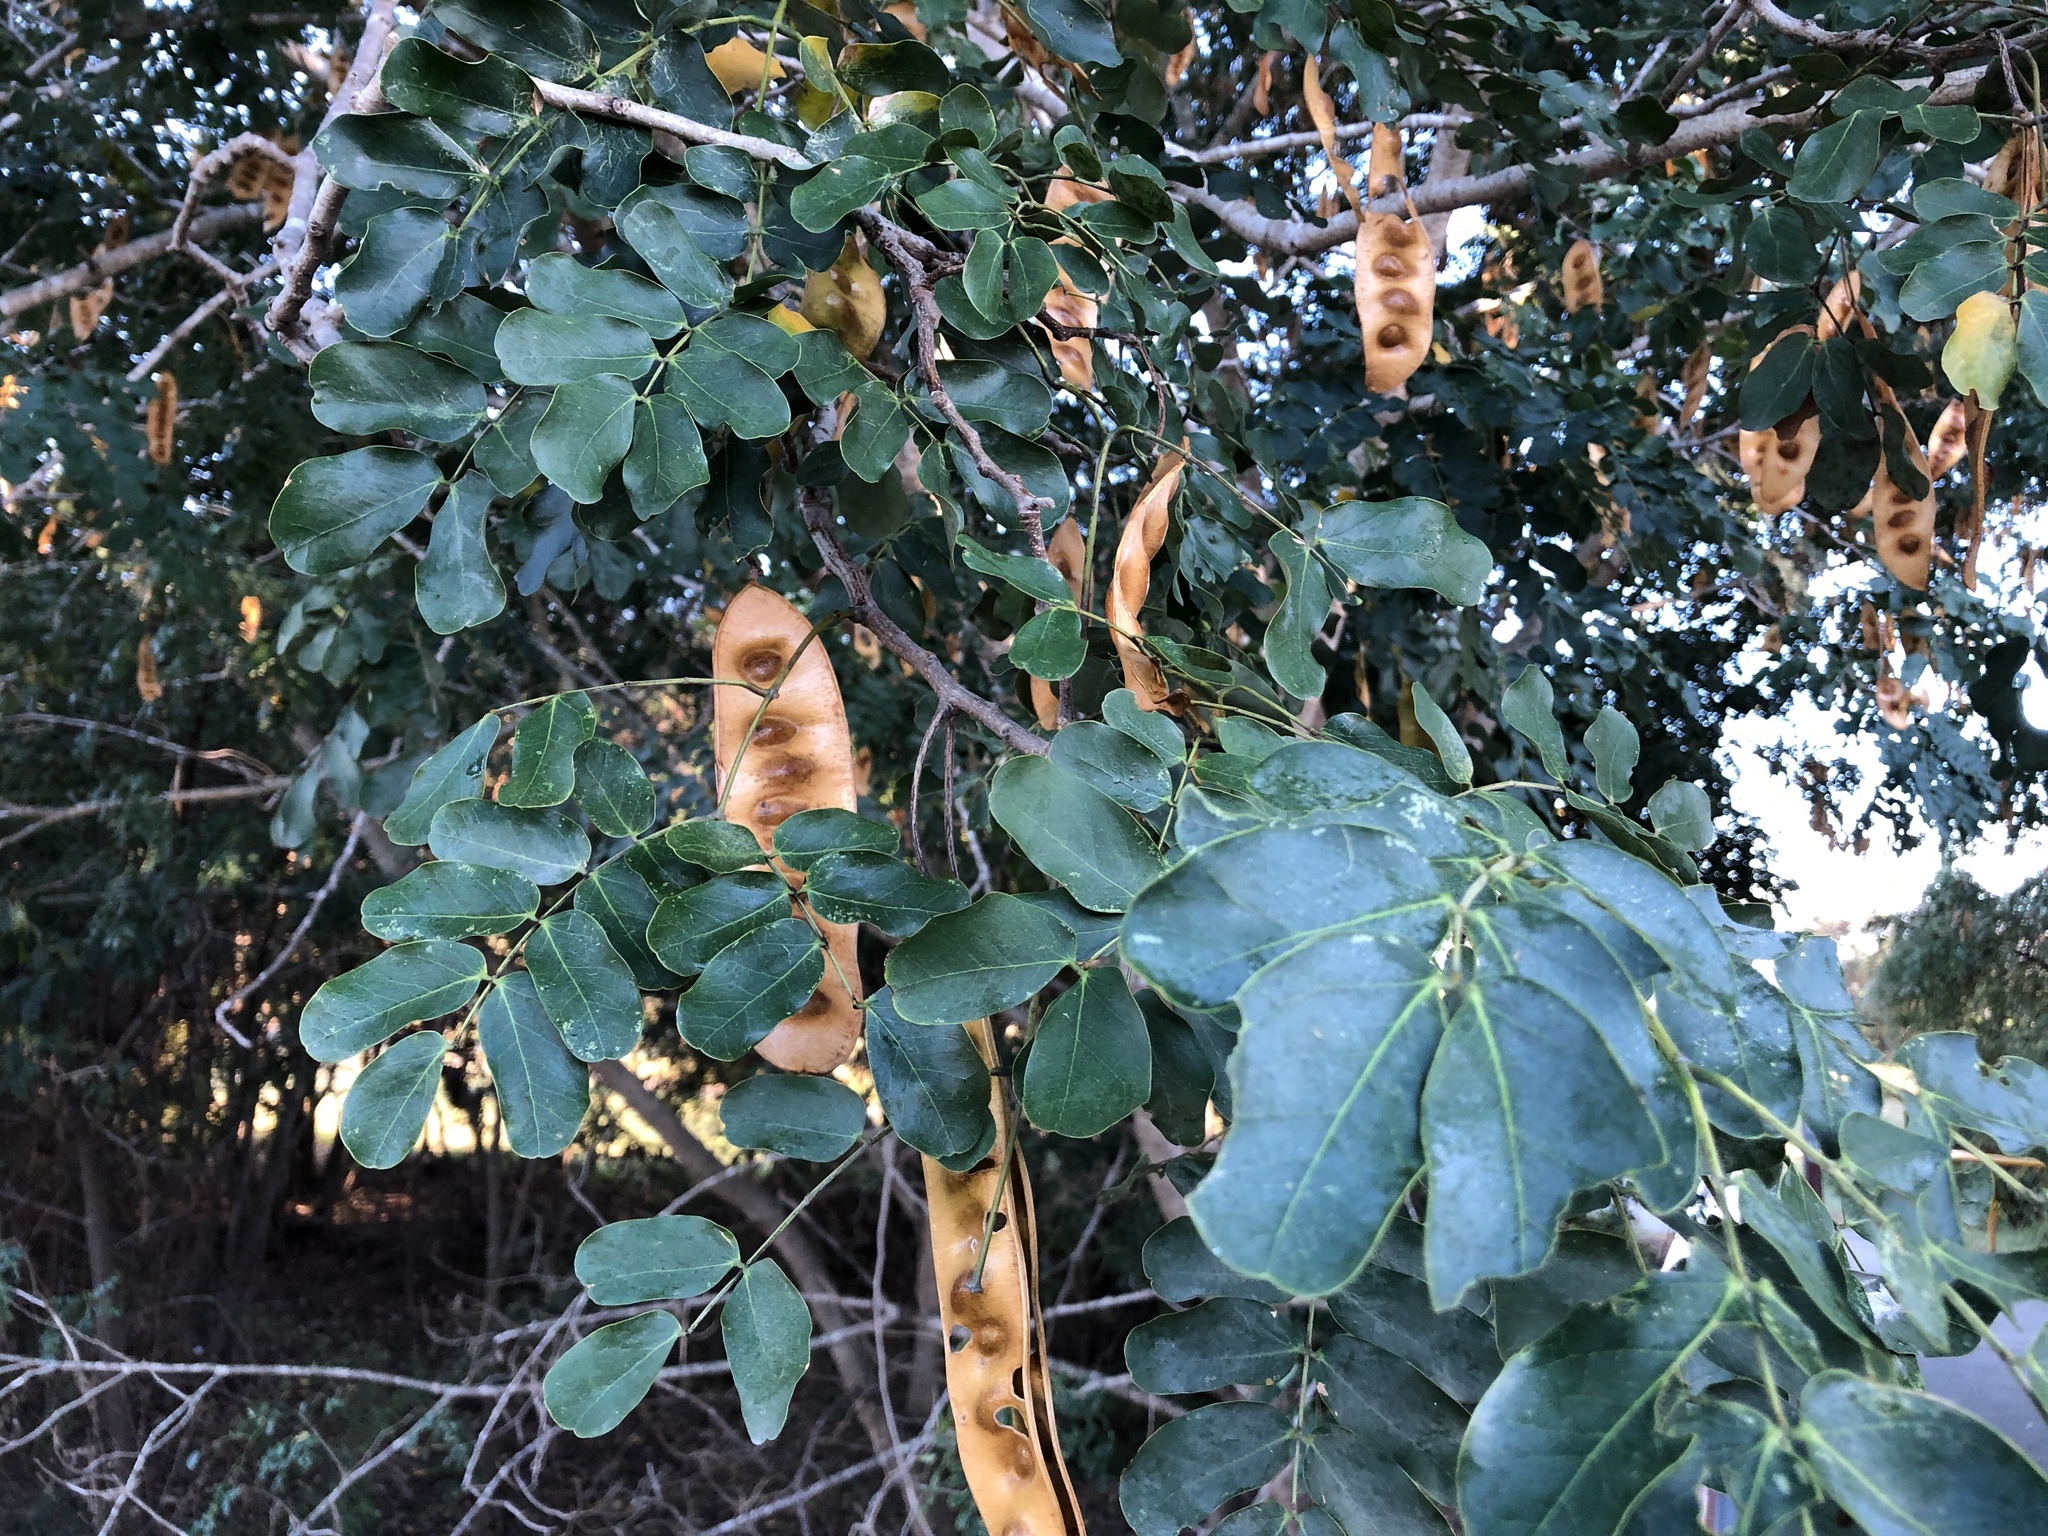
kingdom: Plantae
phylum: Tracheophyta
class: Magnoliopsida
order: Fabales
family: Fabaceae
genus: Albizia
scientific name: Albizia lebbeck
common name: Woman's tongue
